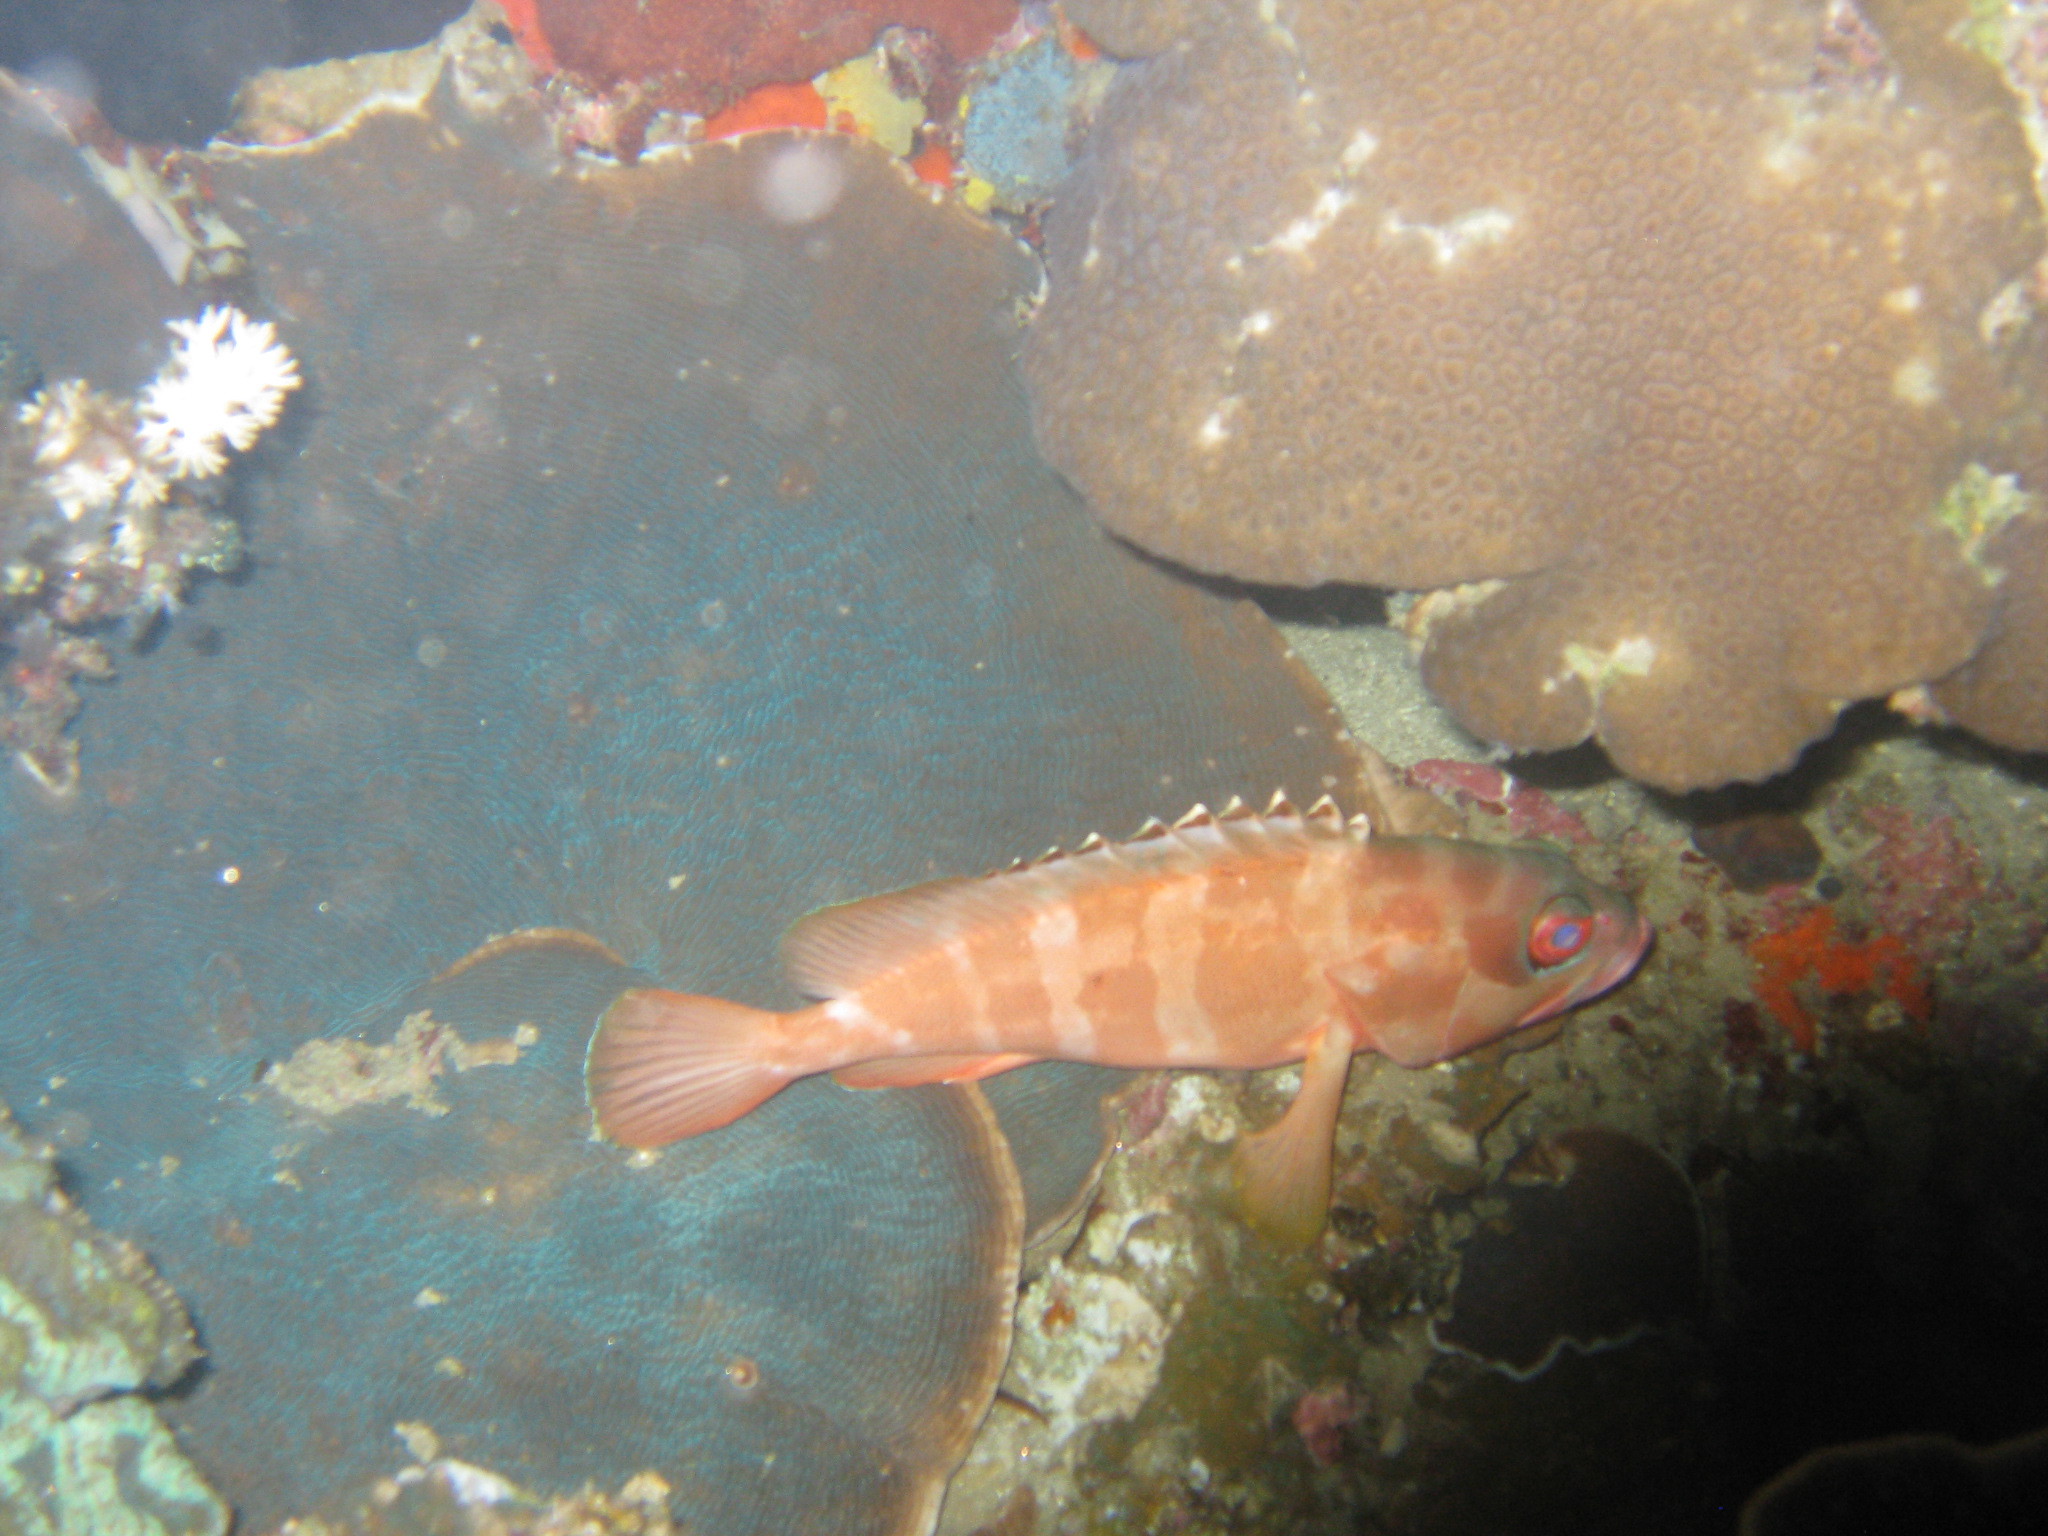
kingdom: Animalia
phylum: Chordata
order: Perciformes
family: Serranidae
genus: Epinephelus
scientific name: Epinephelus fasciatus
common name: Blacktip grouper
